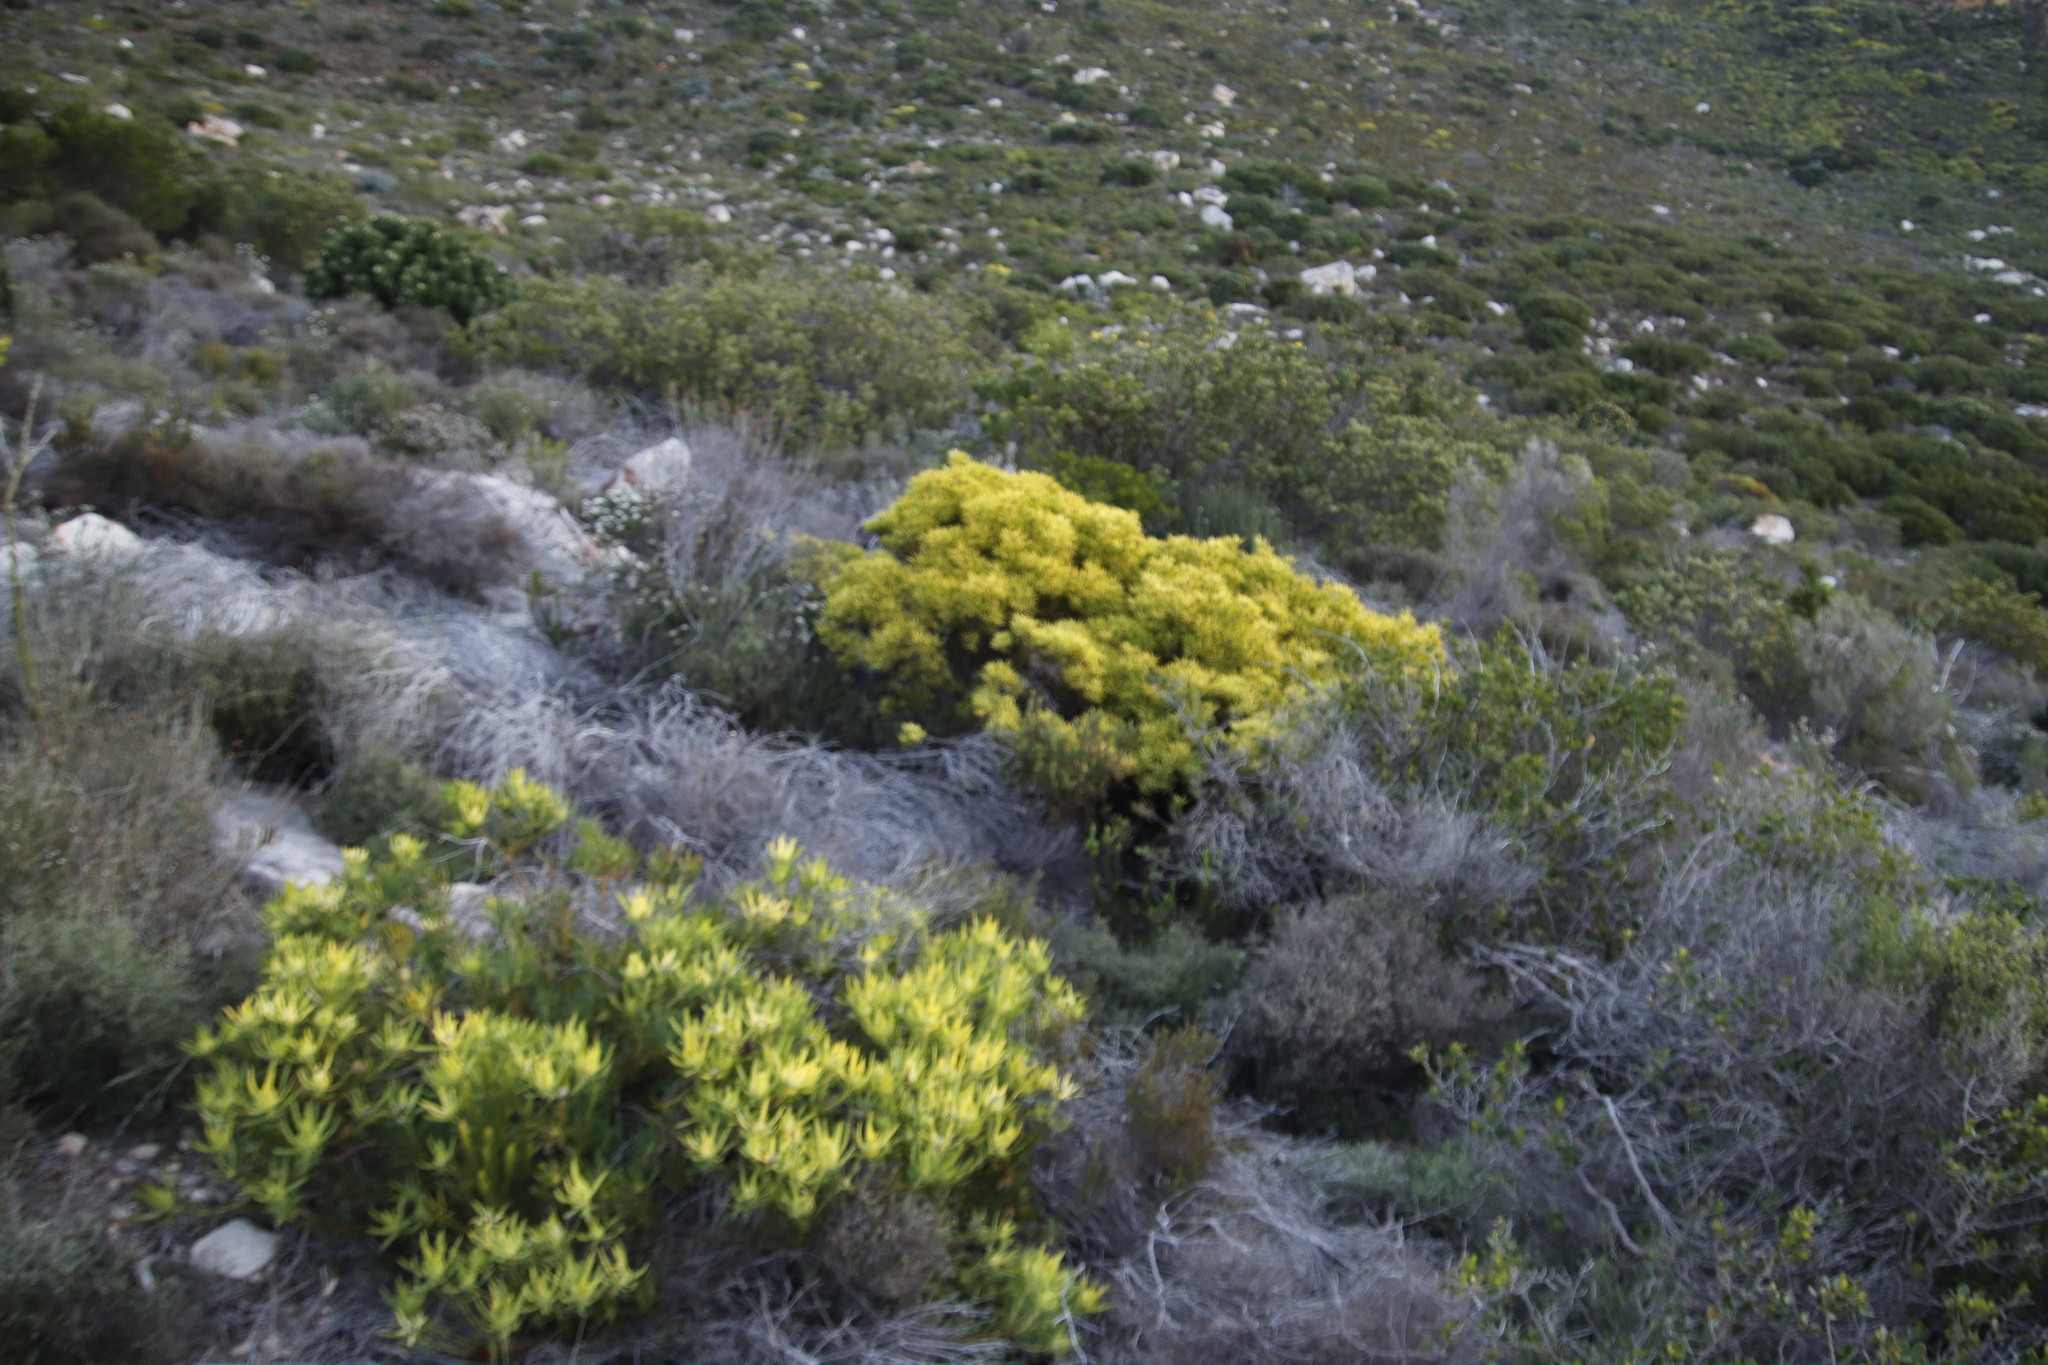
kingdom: Plantae
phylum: Tracheophyta
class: Magnoliopsida
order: Proteales
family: Proteaceae
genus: Leucadendron
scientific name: Leucadendron salignum
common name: Common sunshine conebush
